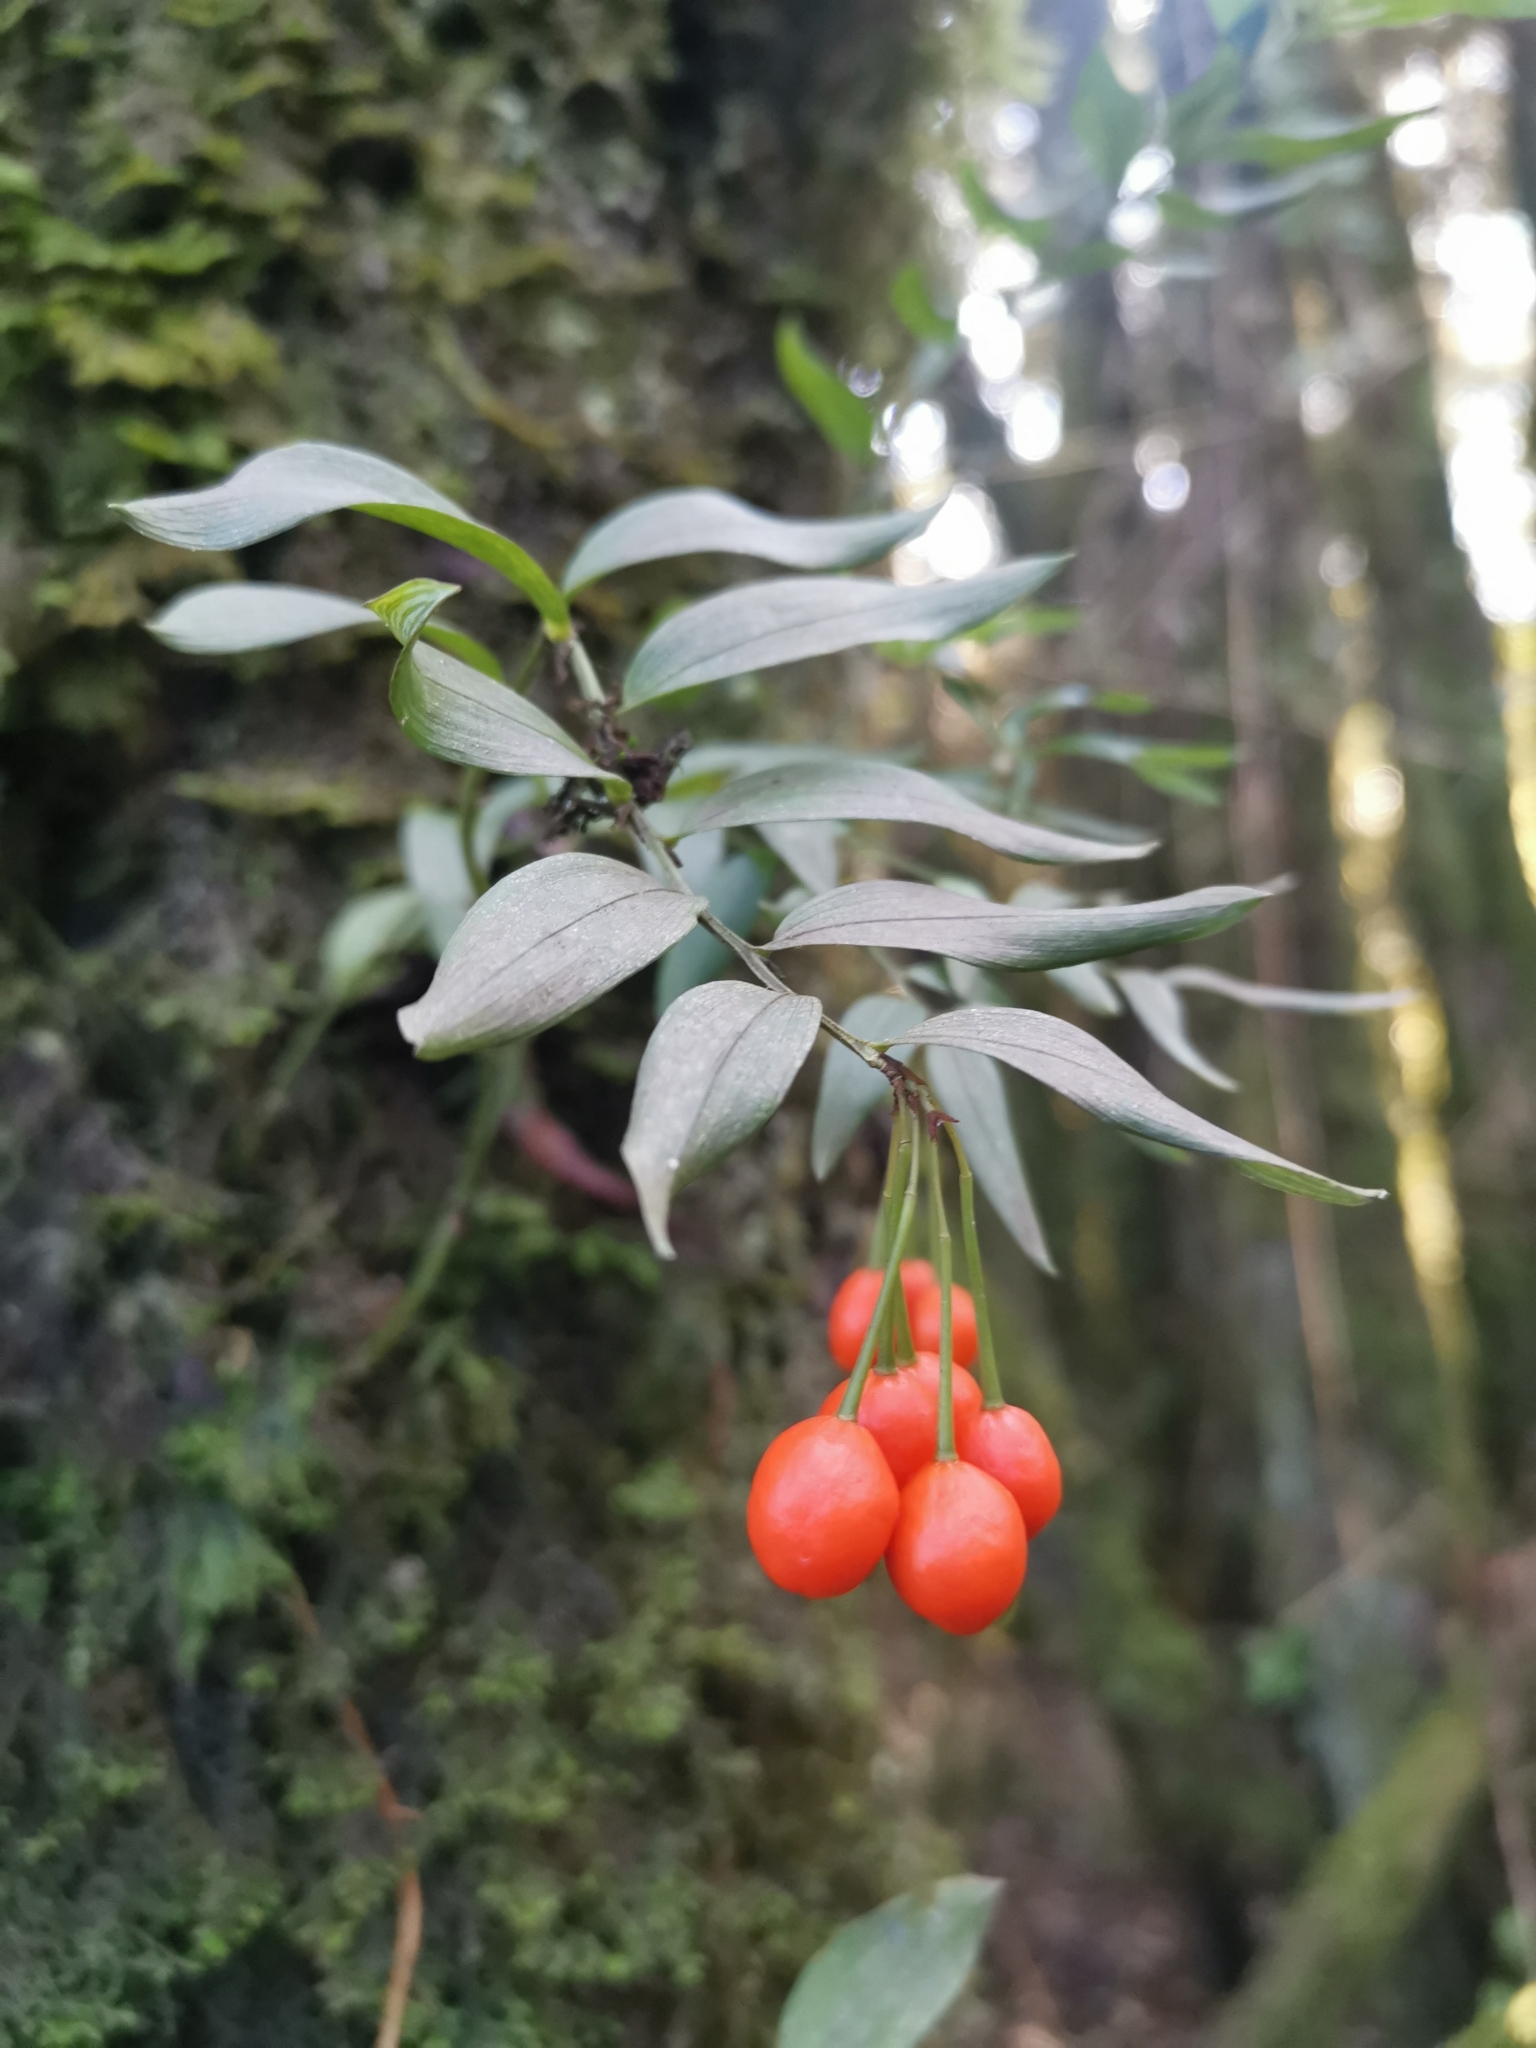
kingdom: Plantae
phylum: Tracheophyta
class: Liliopsida
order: Liliales
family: Alstroemeriaceae
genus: Luzuriaga
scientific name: Luzuriaga radicans
